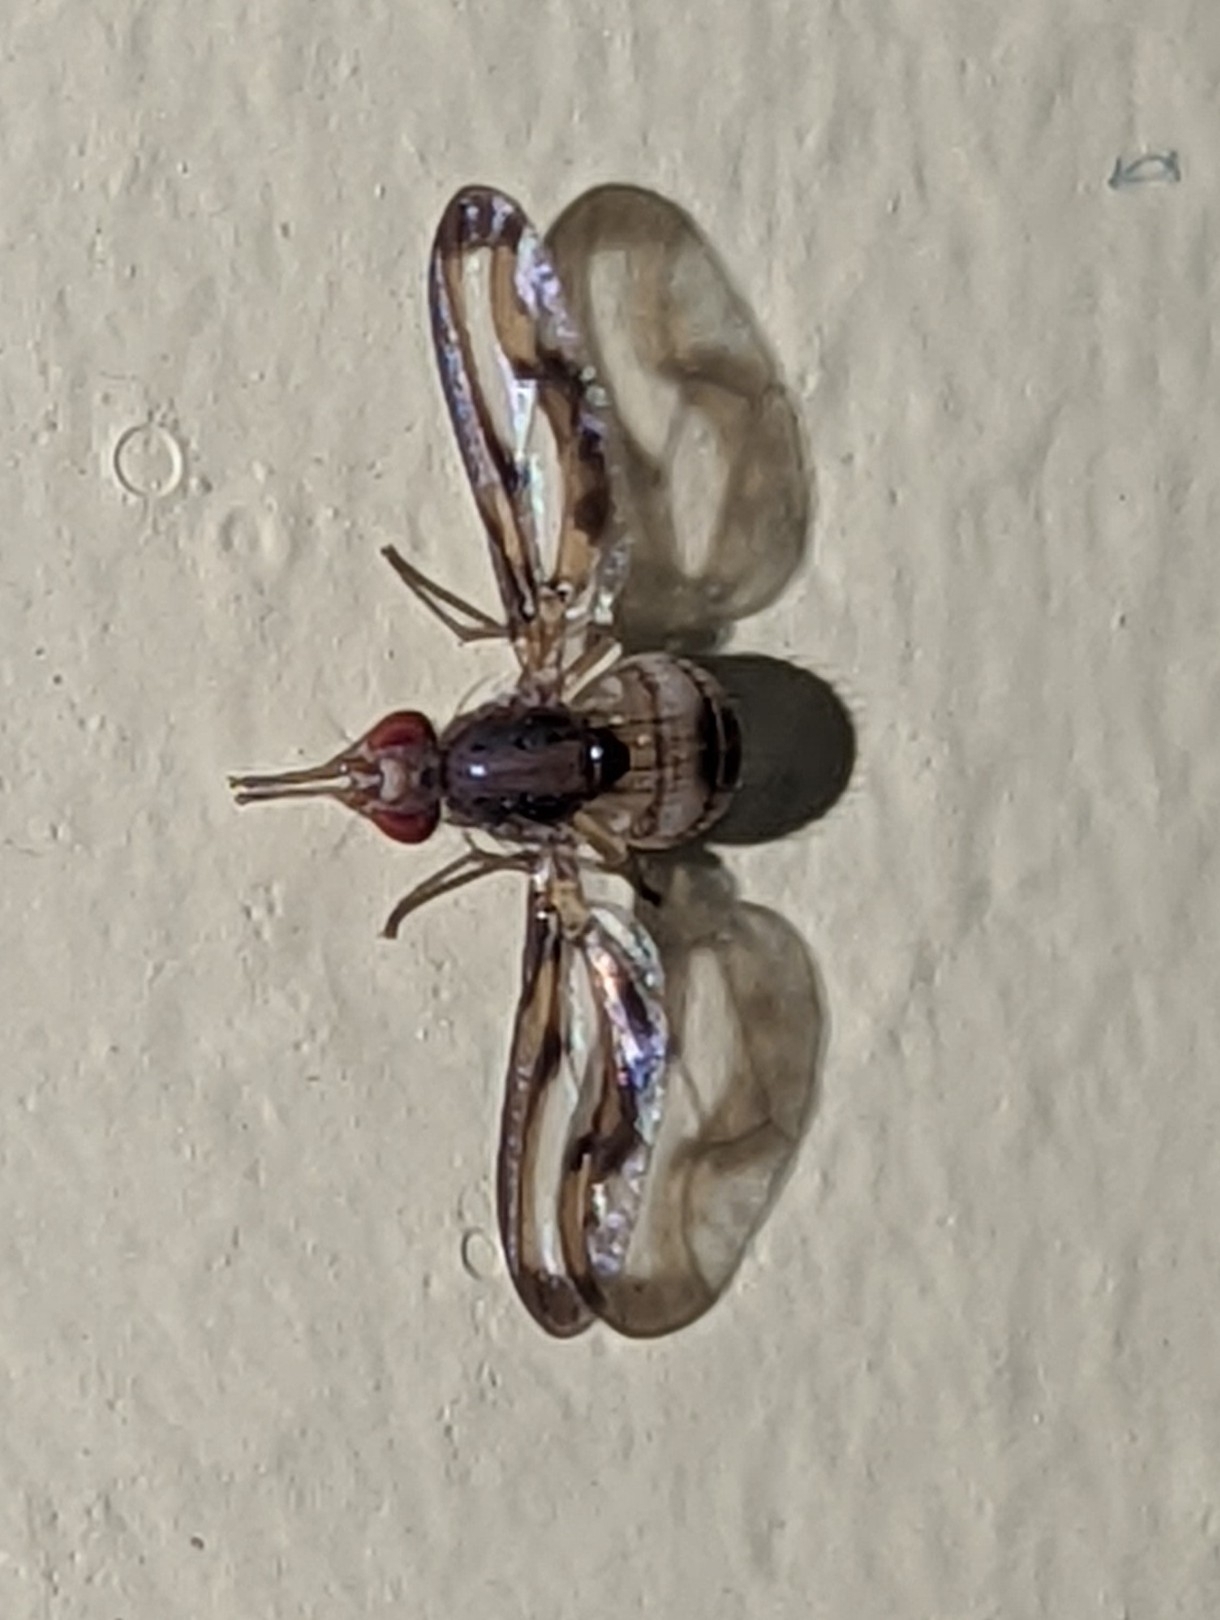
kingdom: Animalia
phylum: Arthropoda
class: Insecta
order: Diptera
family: Pallopteridae
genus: Toxonevra
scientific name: Toxonevra muliebris
